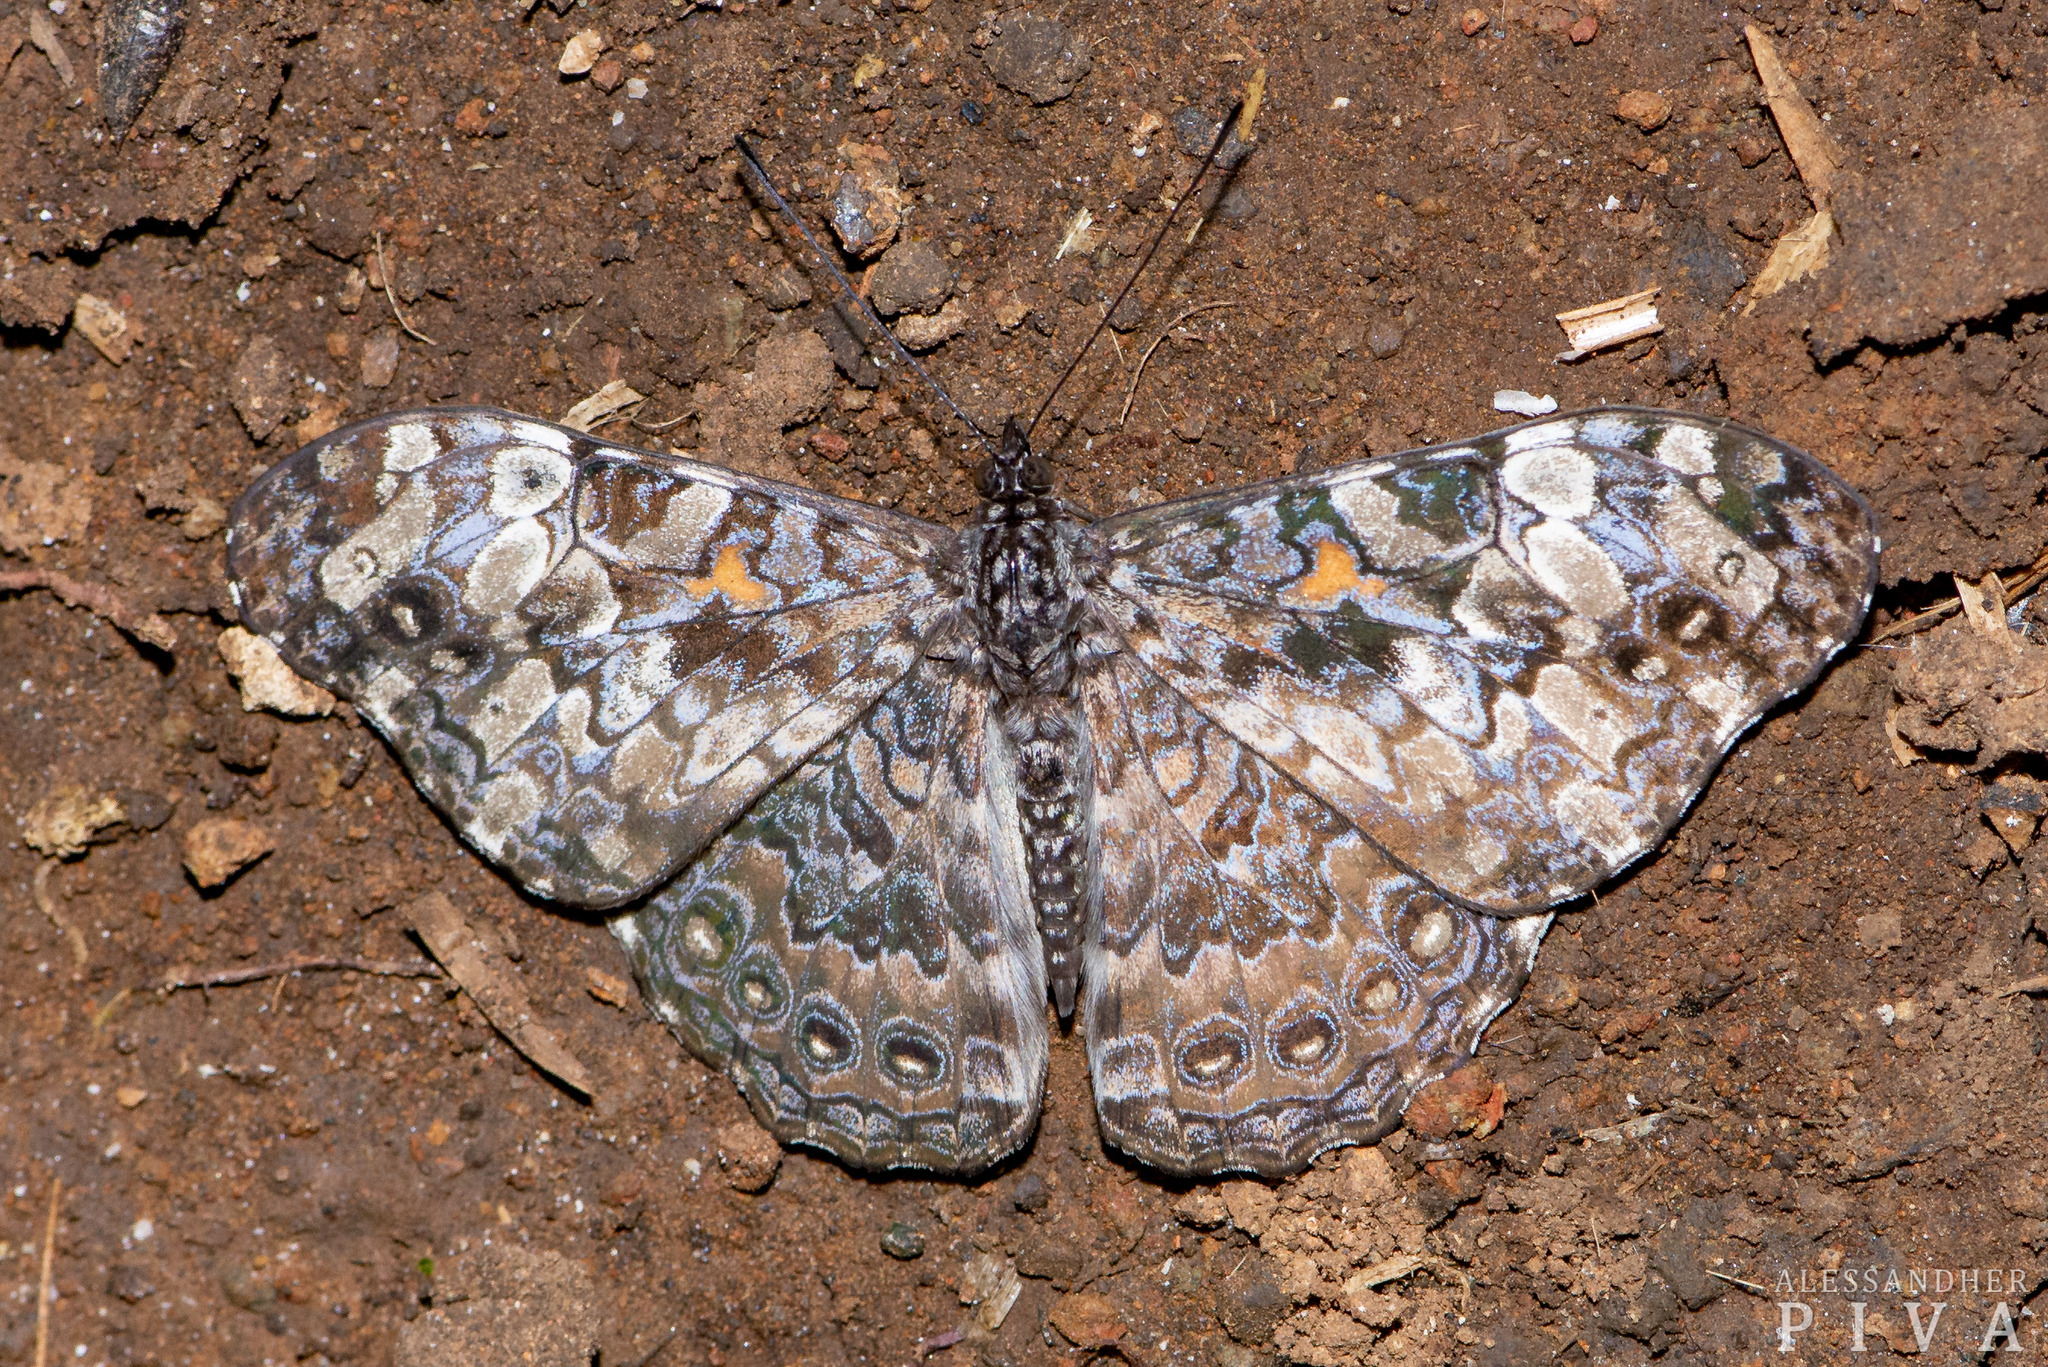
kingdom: Animalia
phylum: Arthropoda
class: Insecta
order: Lepidoptera
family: Nymphalidae
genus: Hamadryas
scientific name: Hamadryas epinome
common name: Epinome cracker
